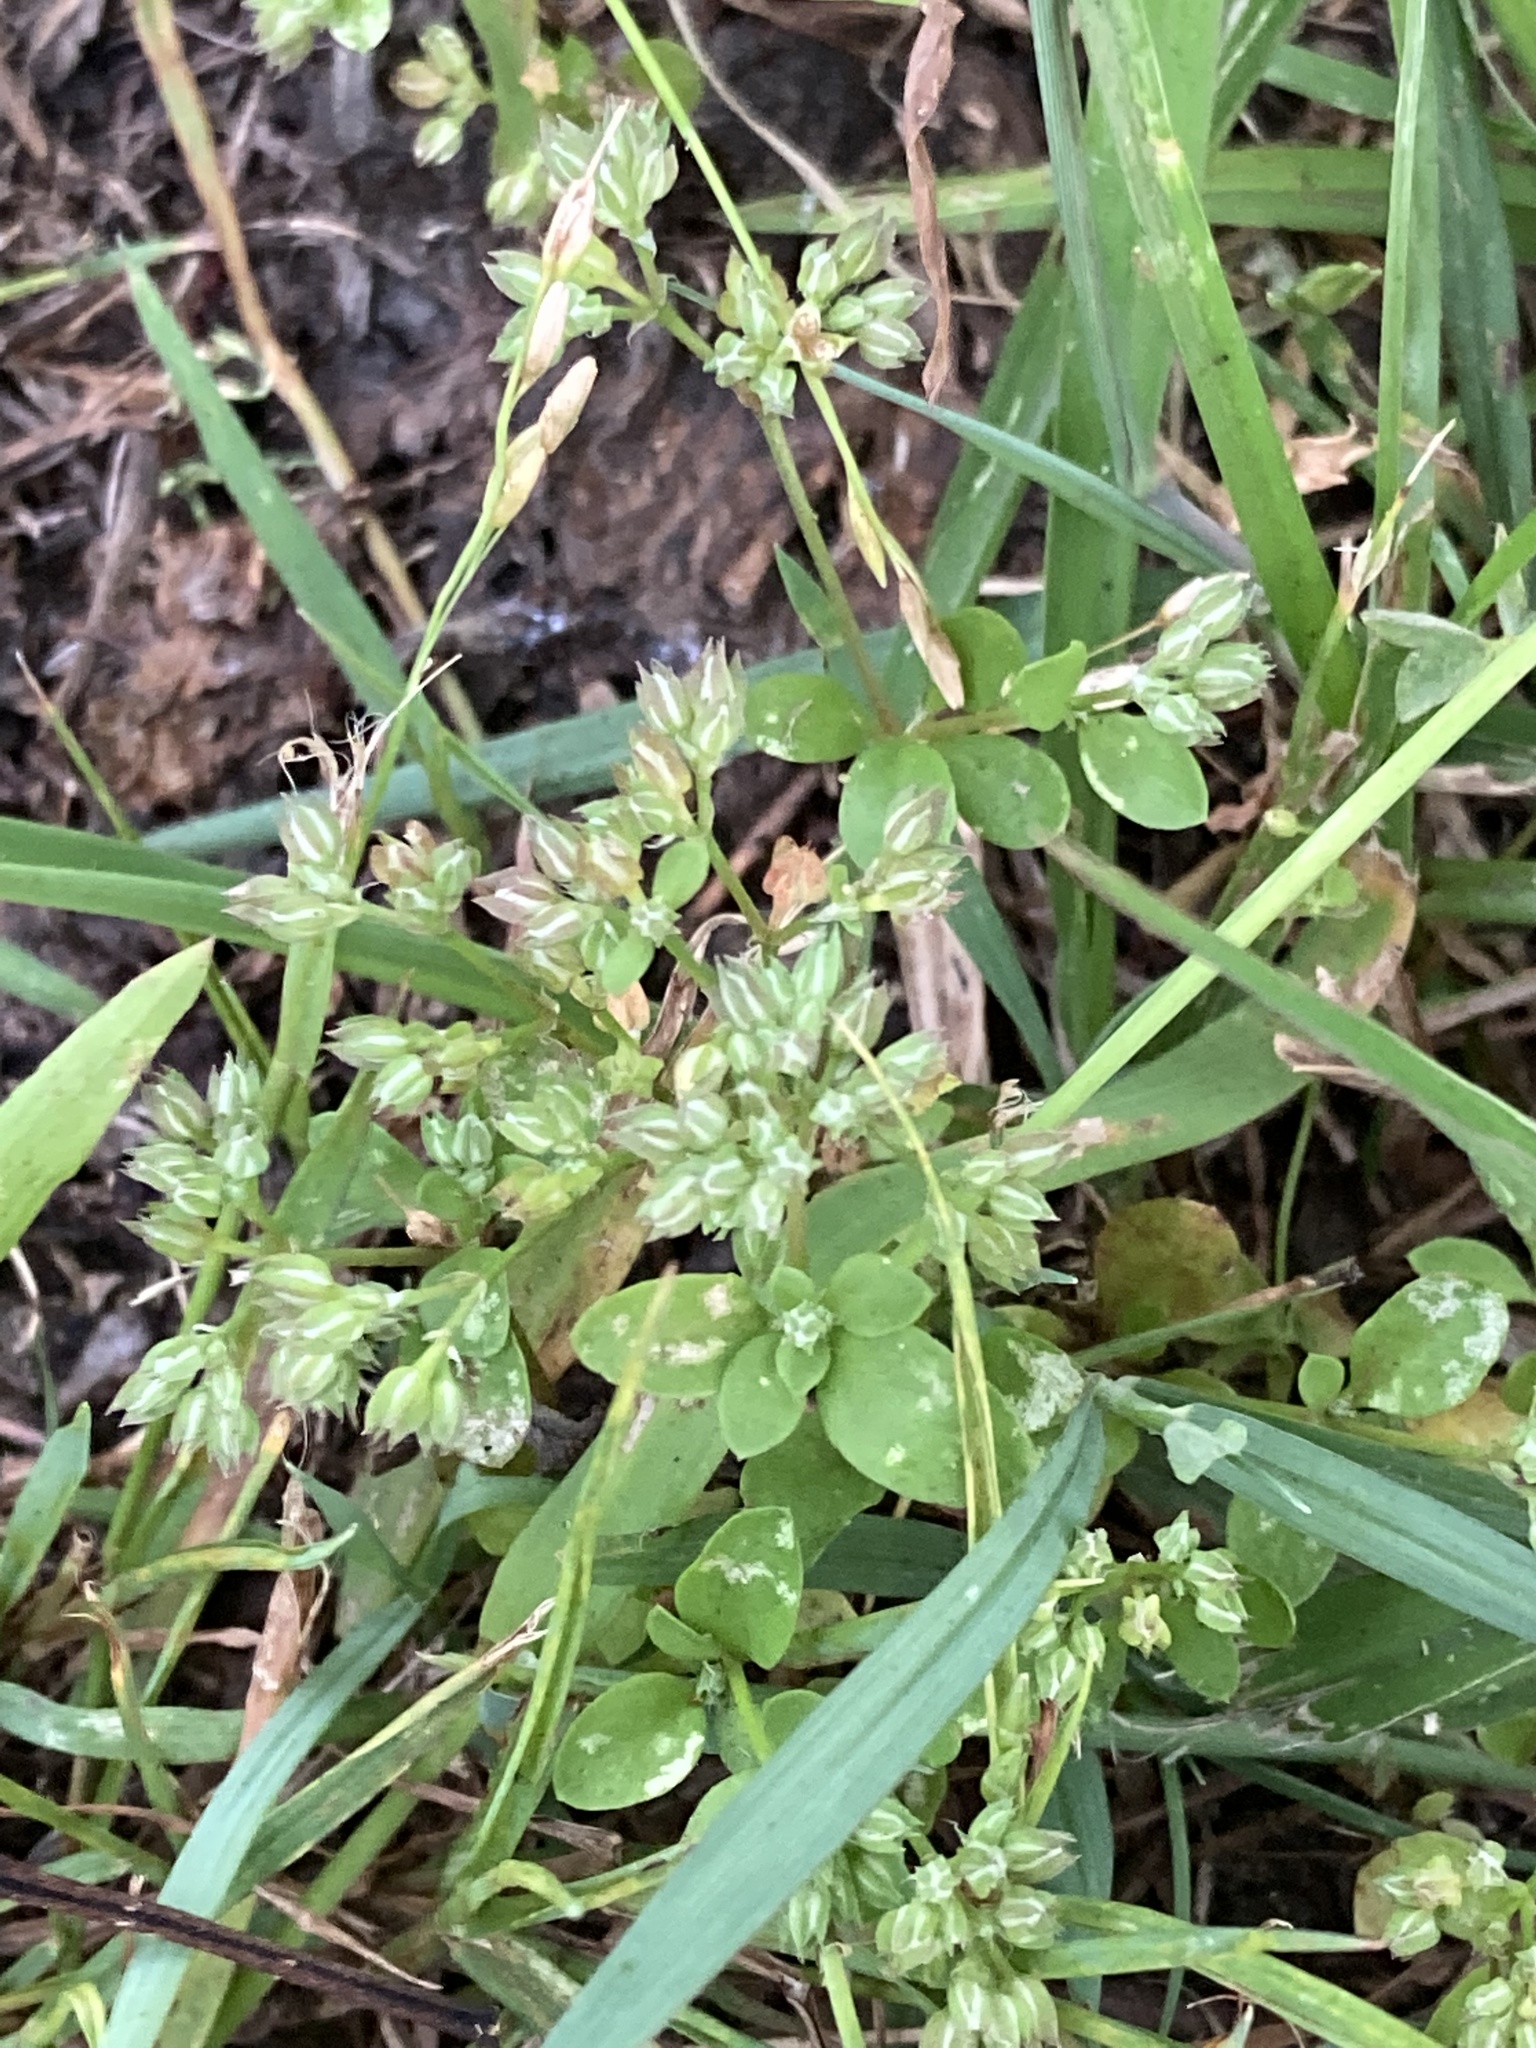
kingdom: Plantae
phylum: Tracheophyta
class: Magnoliopsida
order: Caryophyllales
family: Caryophyllaceae
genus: Polycarpon
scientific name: Polycarpon tetraphyllum
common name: Four-leaved all-seed
